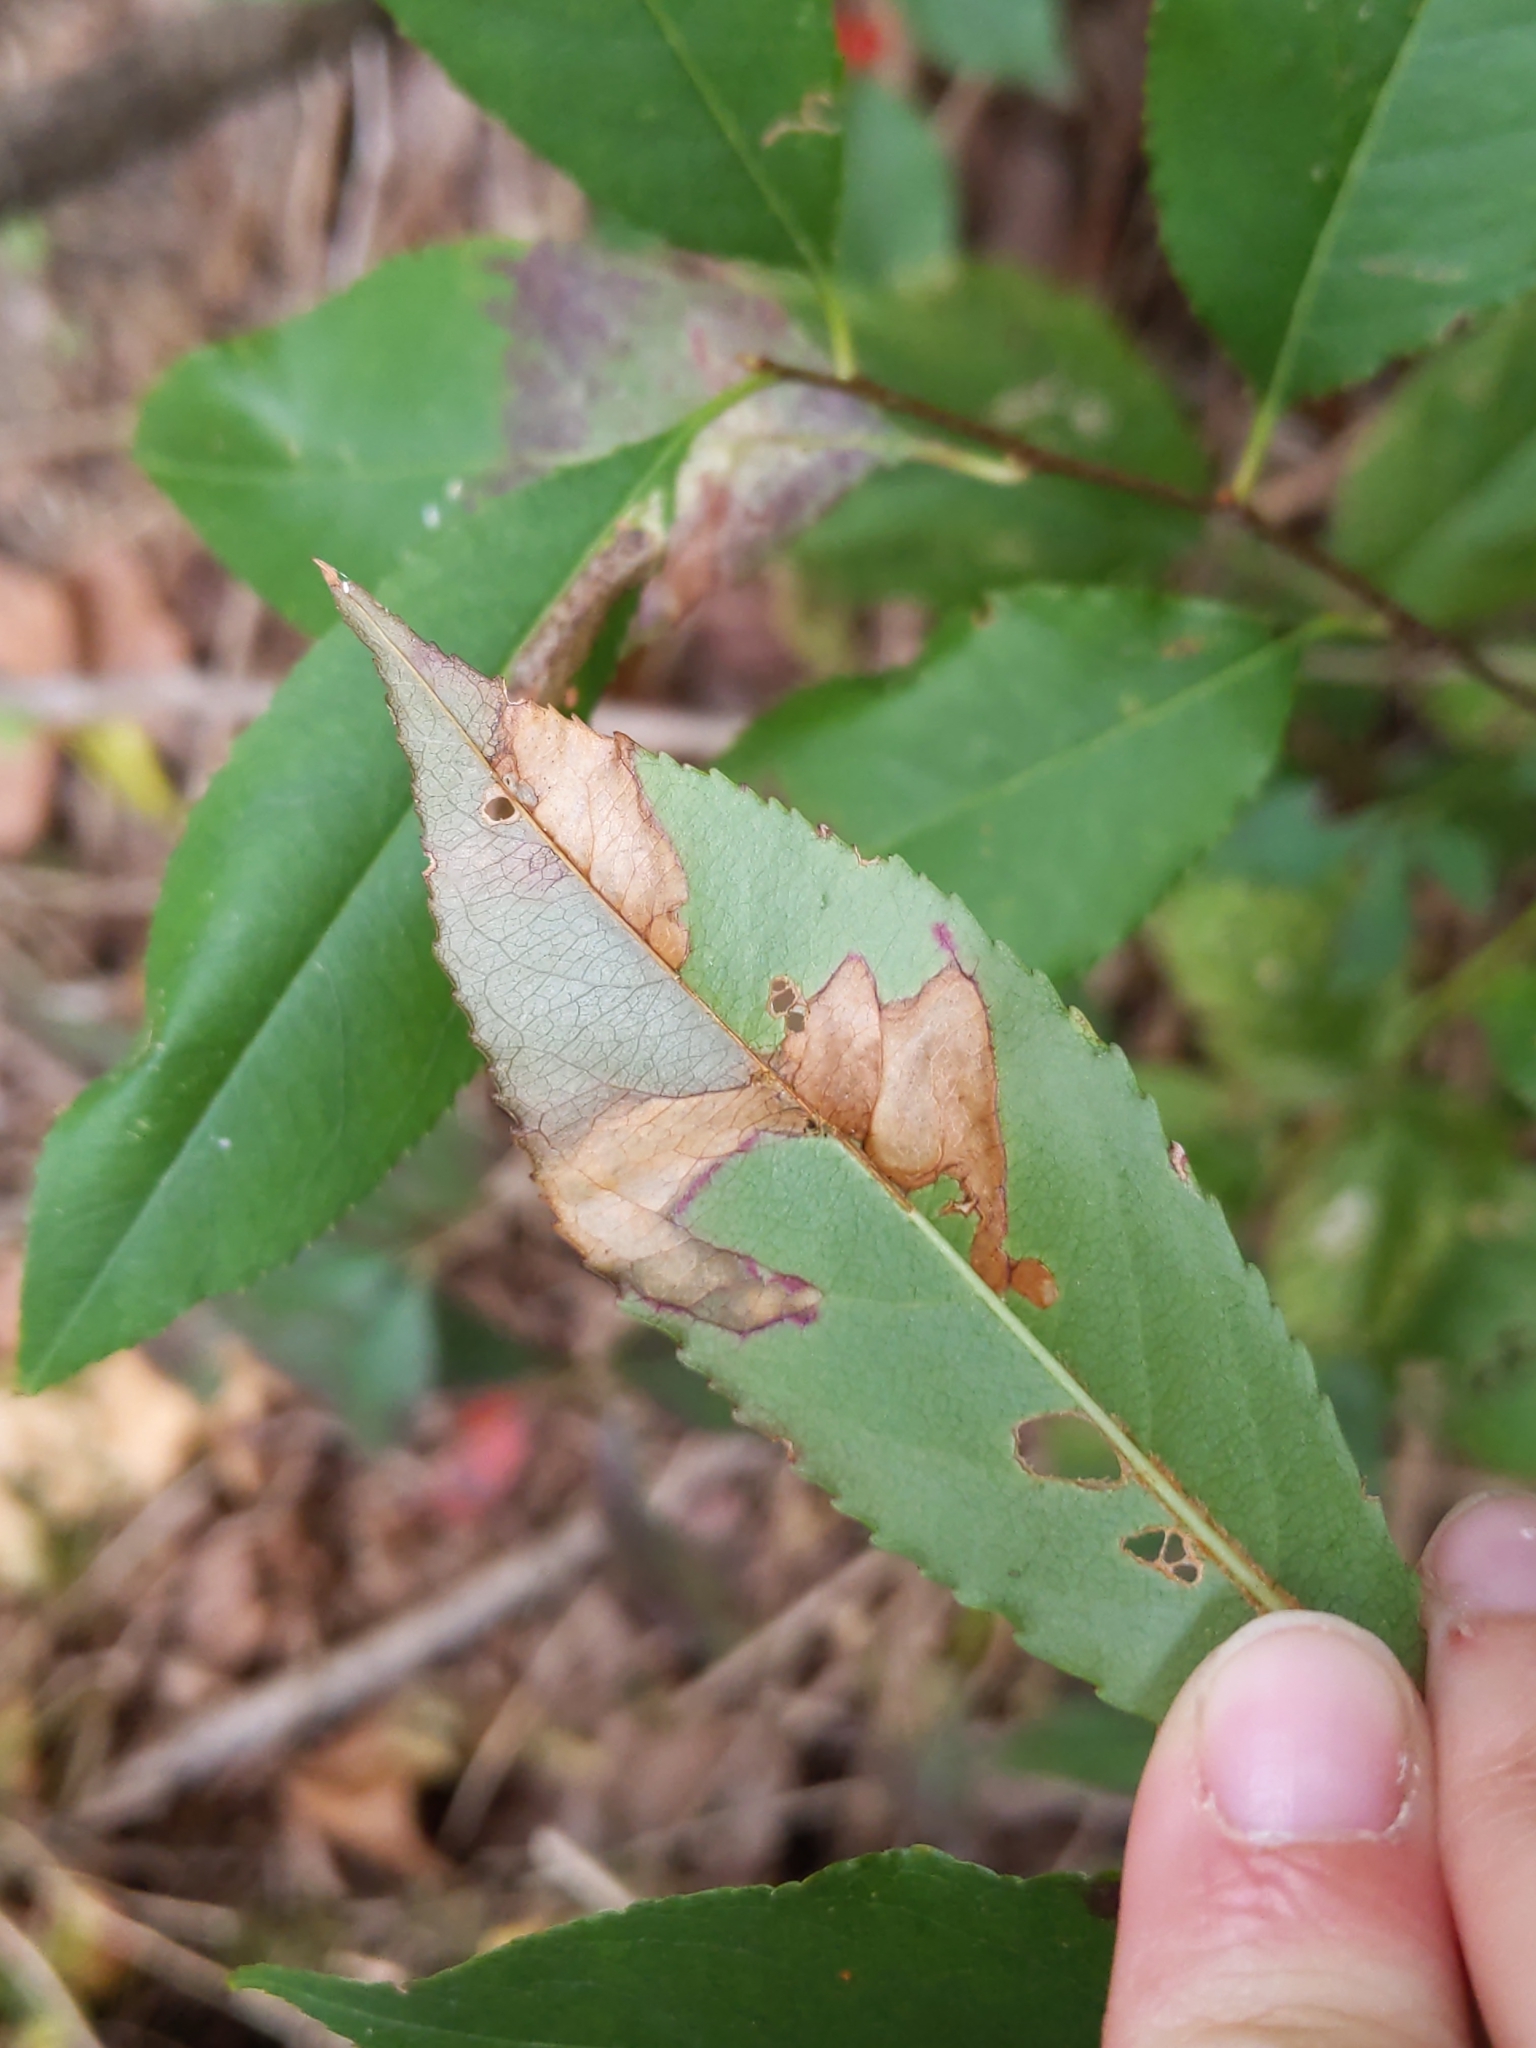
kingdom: Animalia
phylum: Arthropoda
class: Insecta
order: Lepidoptera
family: Nepticulidae
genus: Stigmella
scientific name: Stigmella prunifoliella
